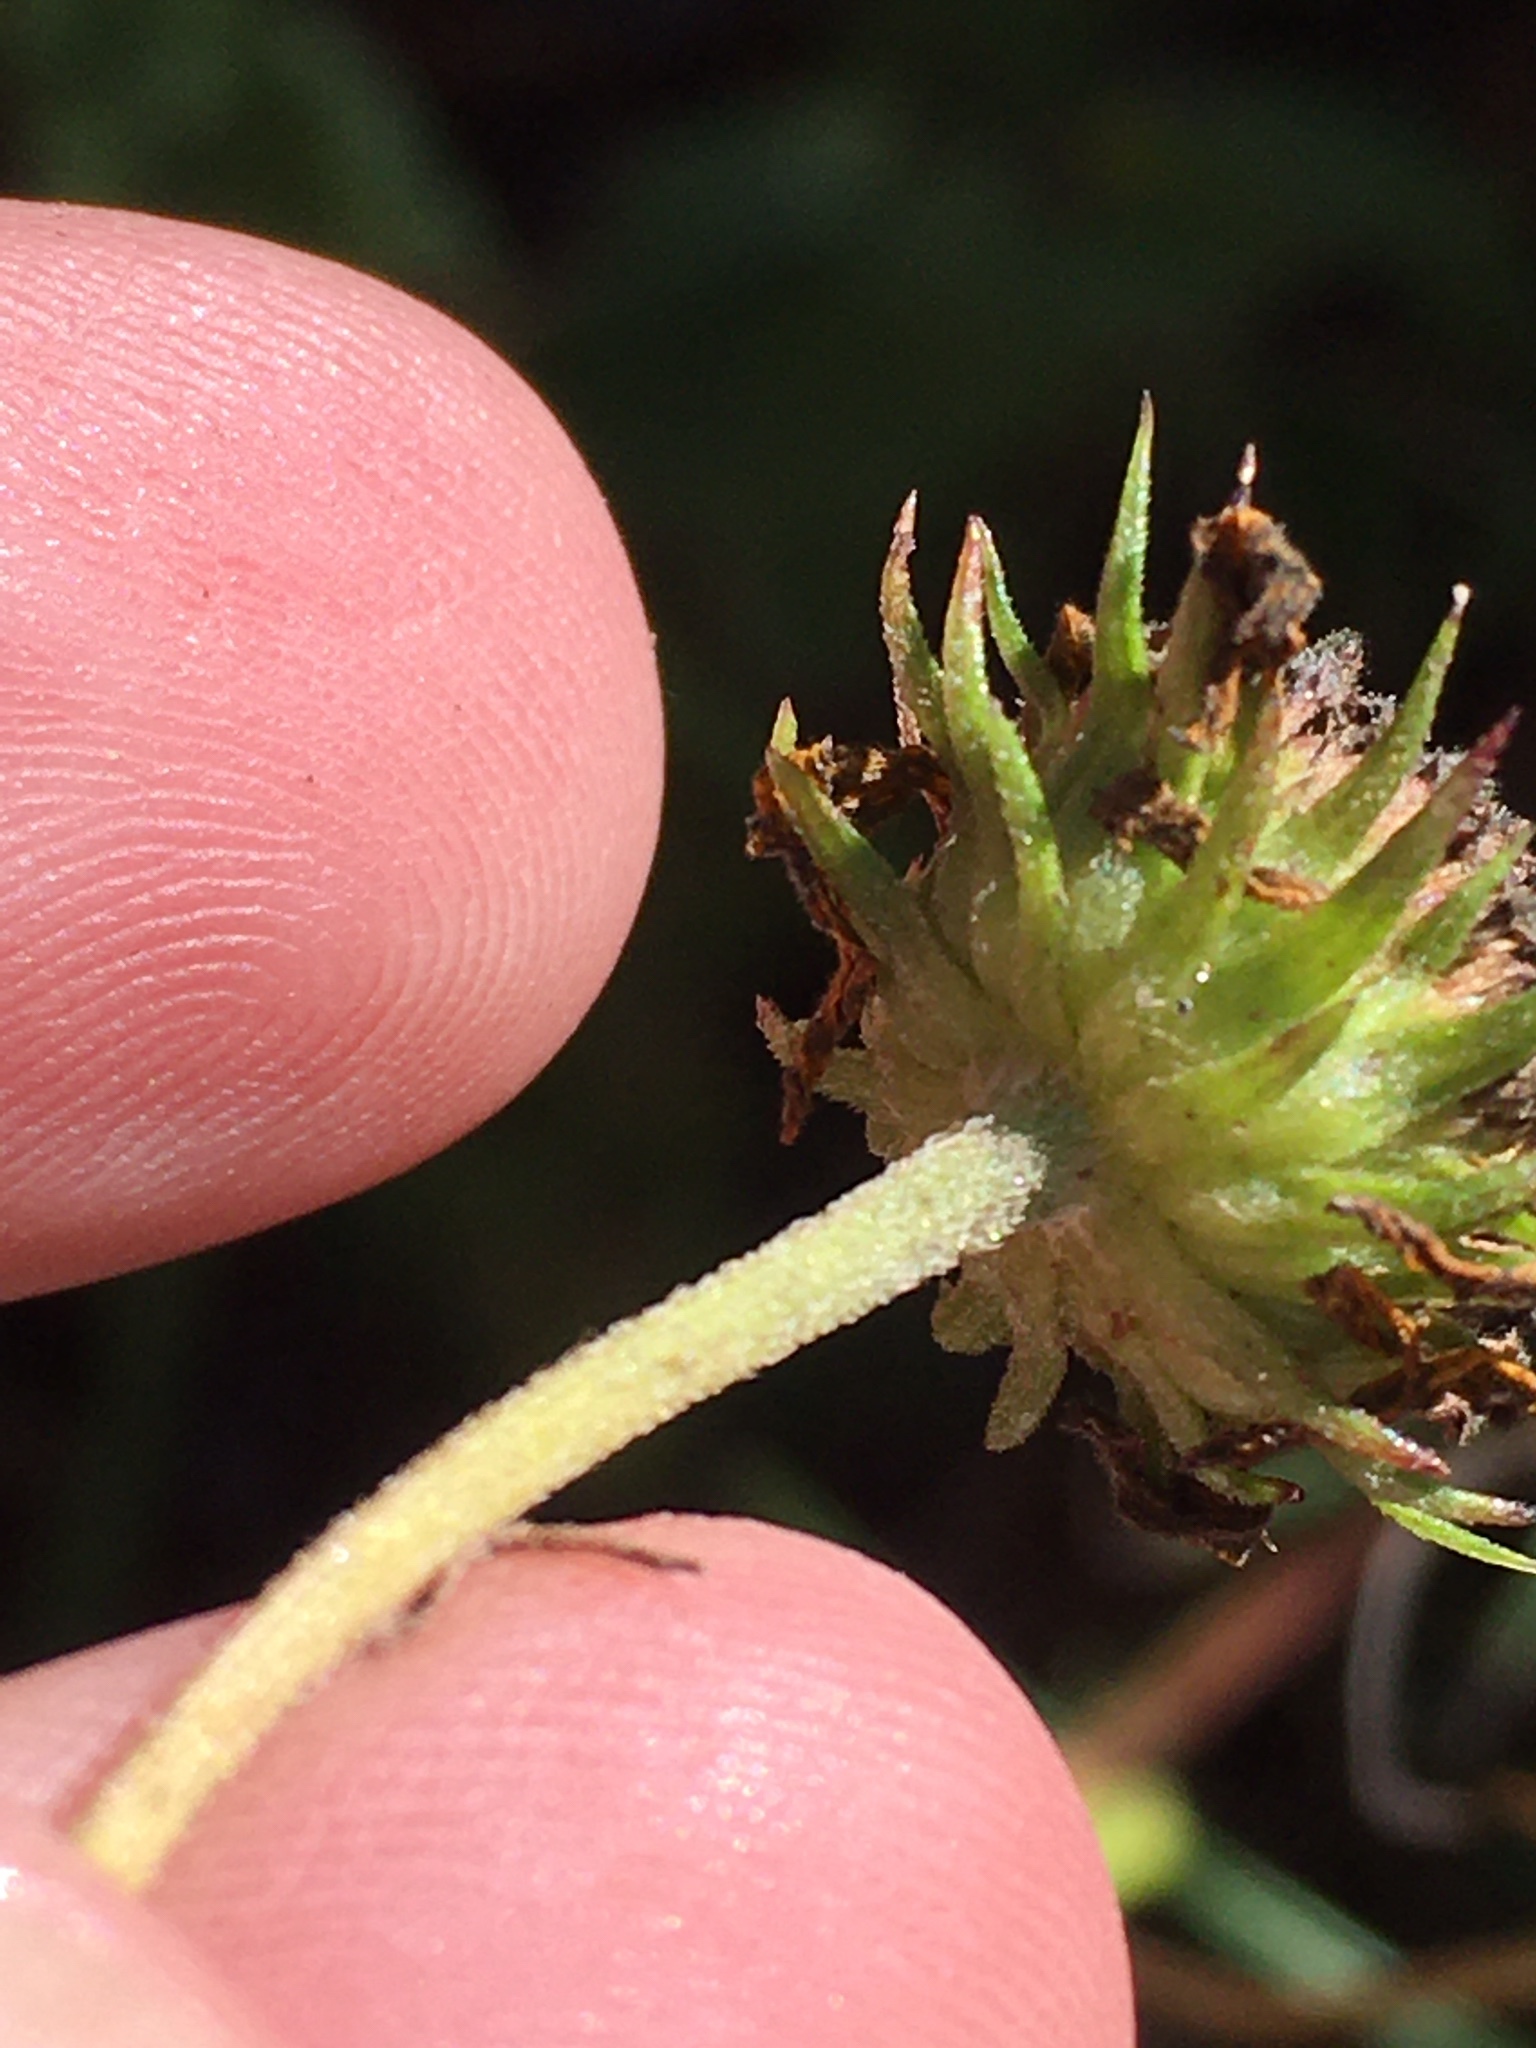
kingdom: Plantae
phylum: Tracheophyta
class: Magnoliopsida
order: Asterales
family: Asteraceae
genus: Helianthus
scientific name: Helianthus angustifolius
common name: Swamp sunflower
